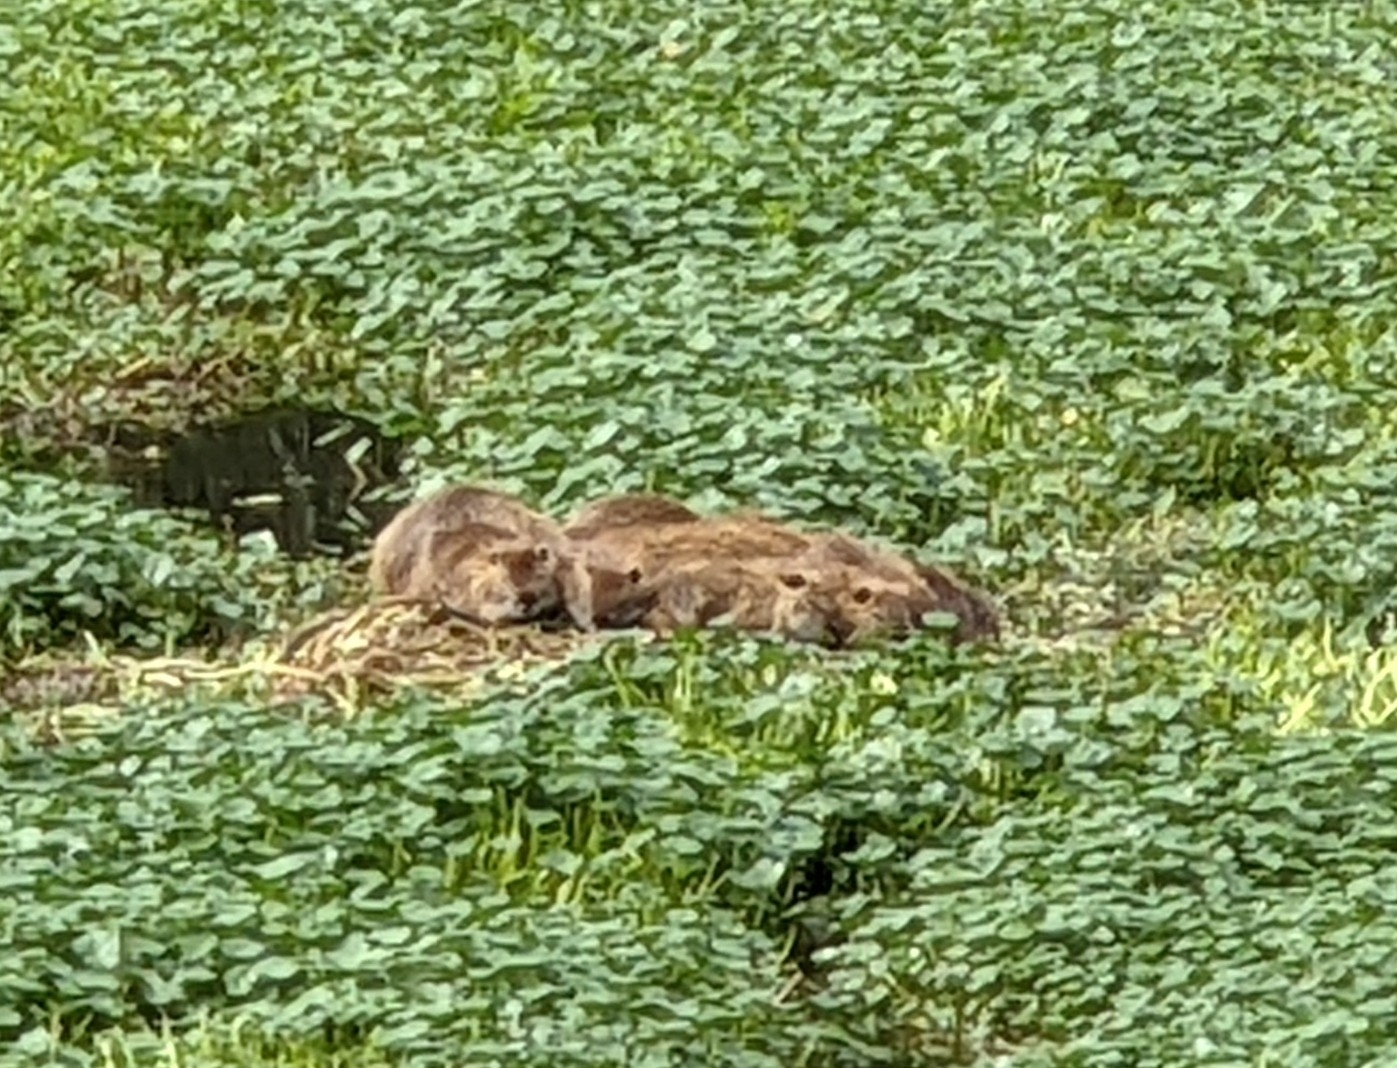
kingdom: Animalia
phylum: Chordata
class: Mammalia
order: Rodentia
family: Myocastoridae
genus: Myocastor
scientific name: Myocastor coypus
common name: Coypu
